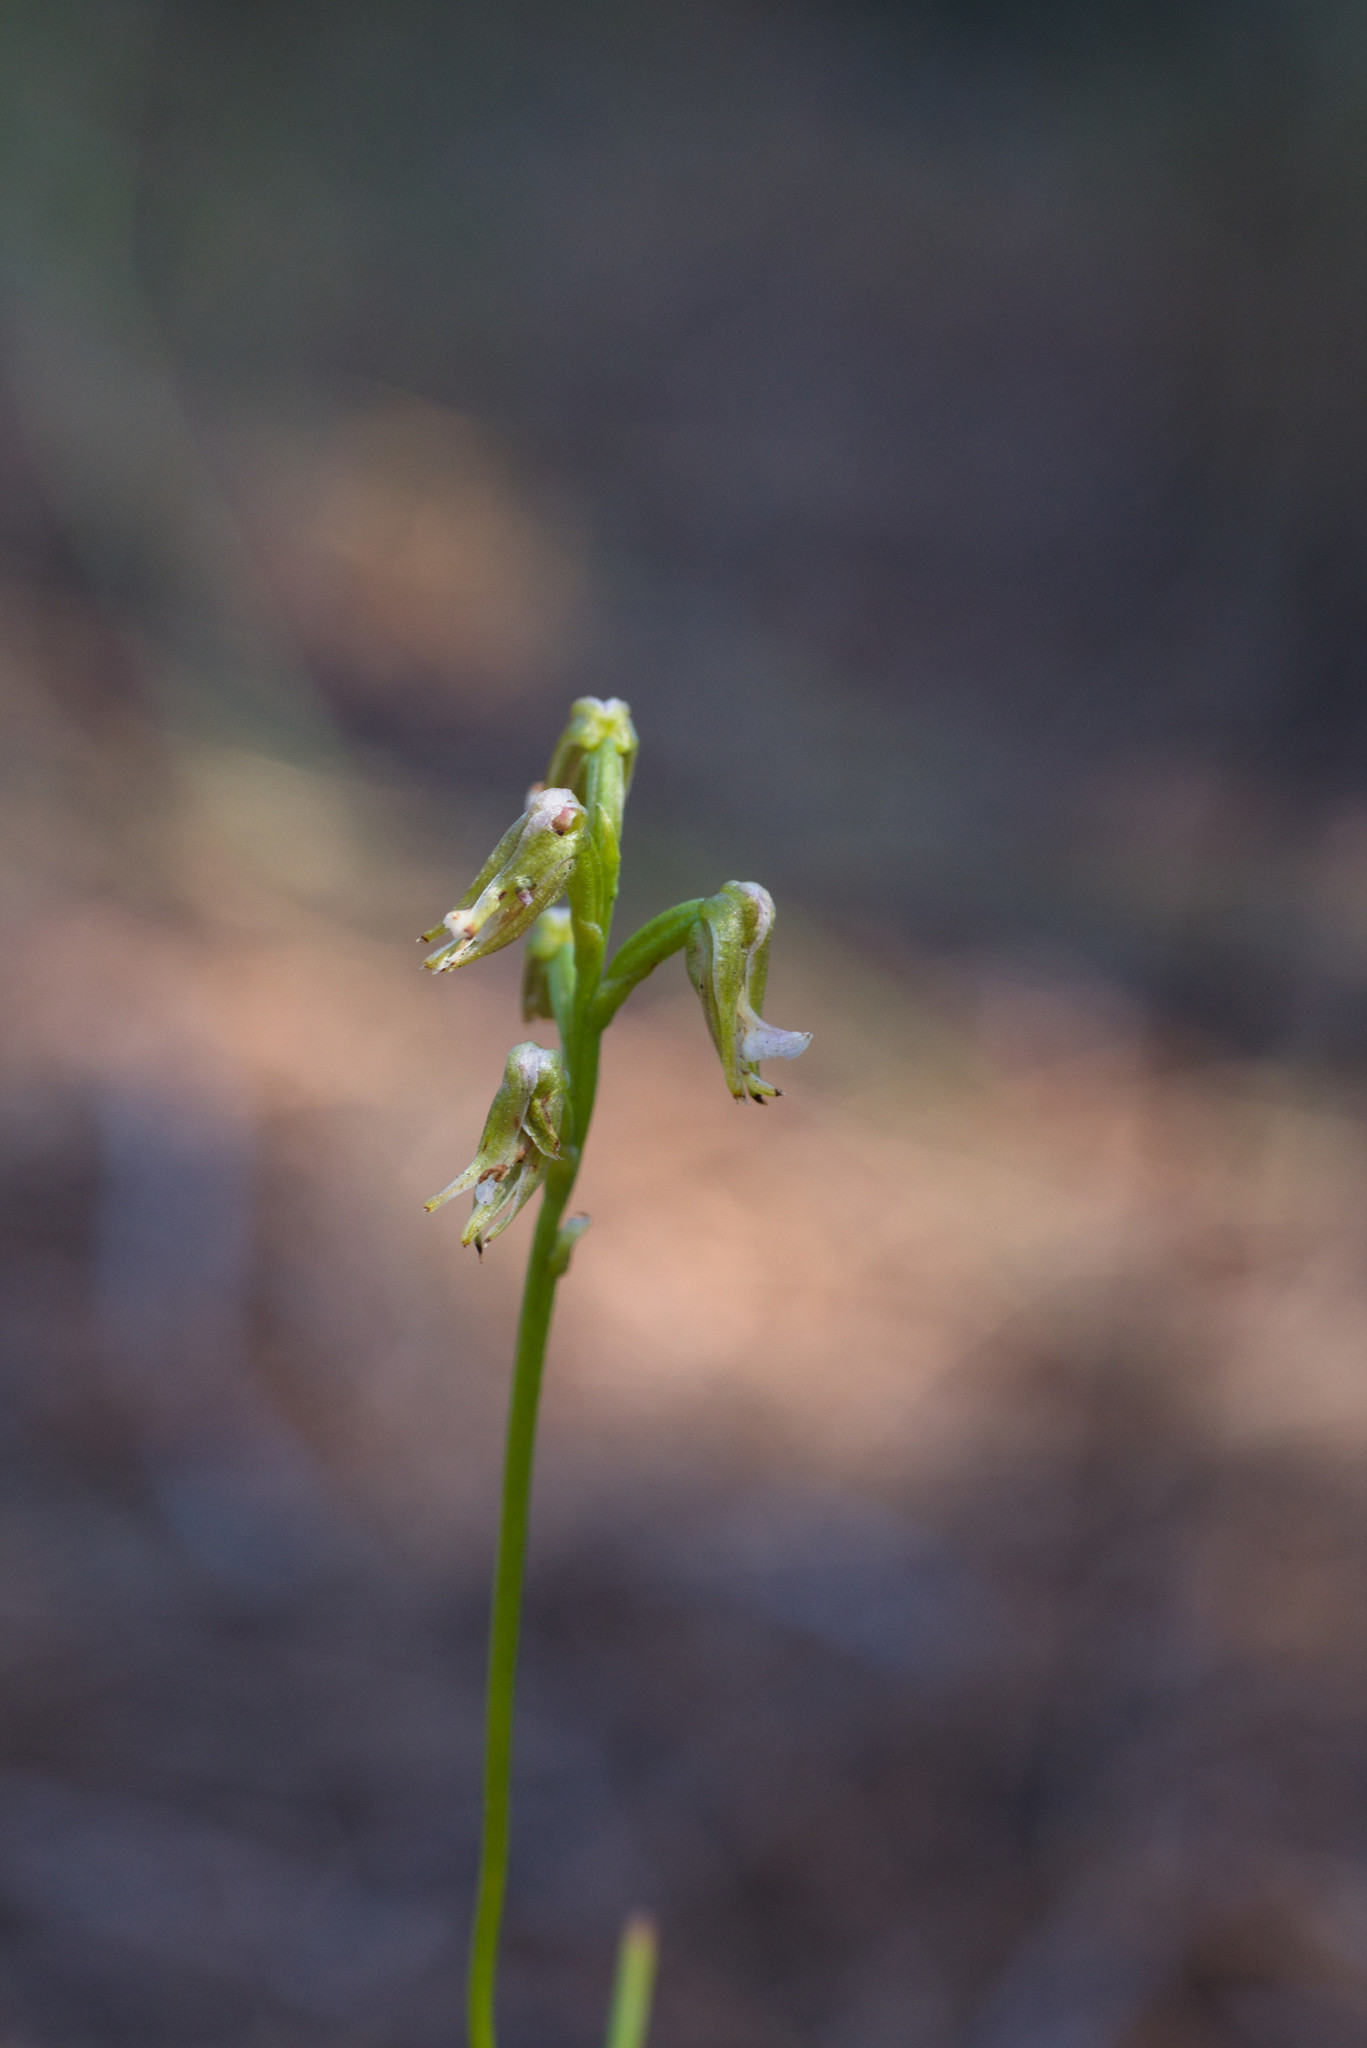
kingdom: Plantae
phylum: Tracheophyta
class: Liliopsida
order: Asparagales
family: Orchidaceae
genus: Prasophyllum
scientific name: Prasophyllum parvifolium
